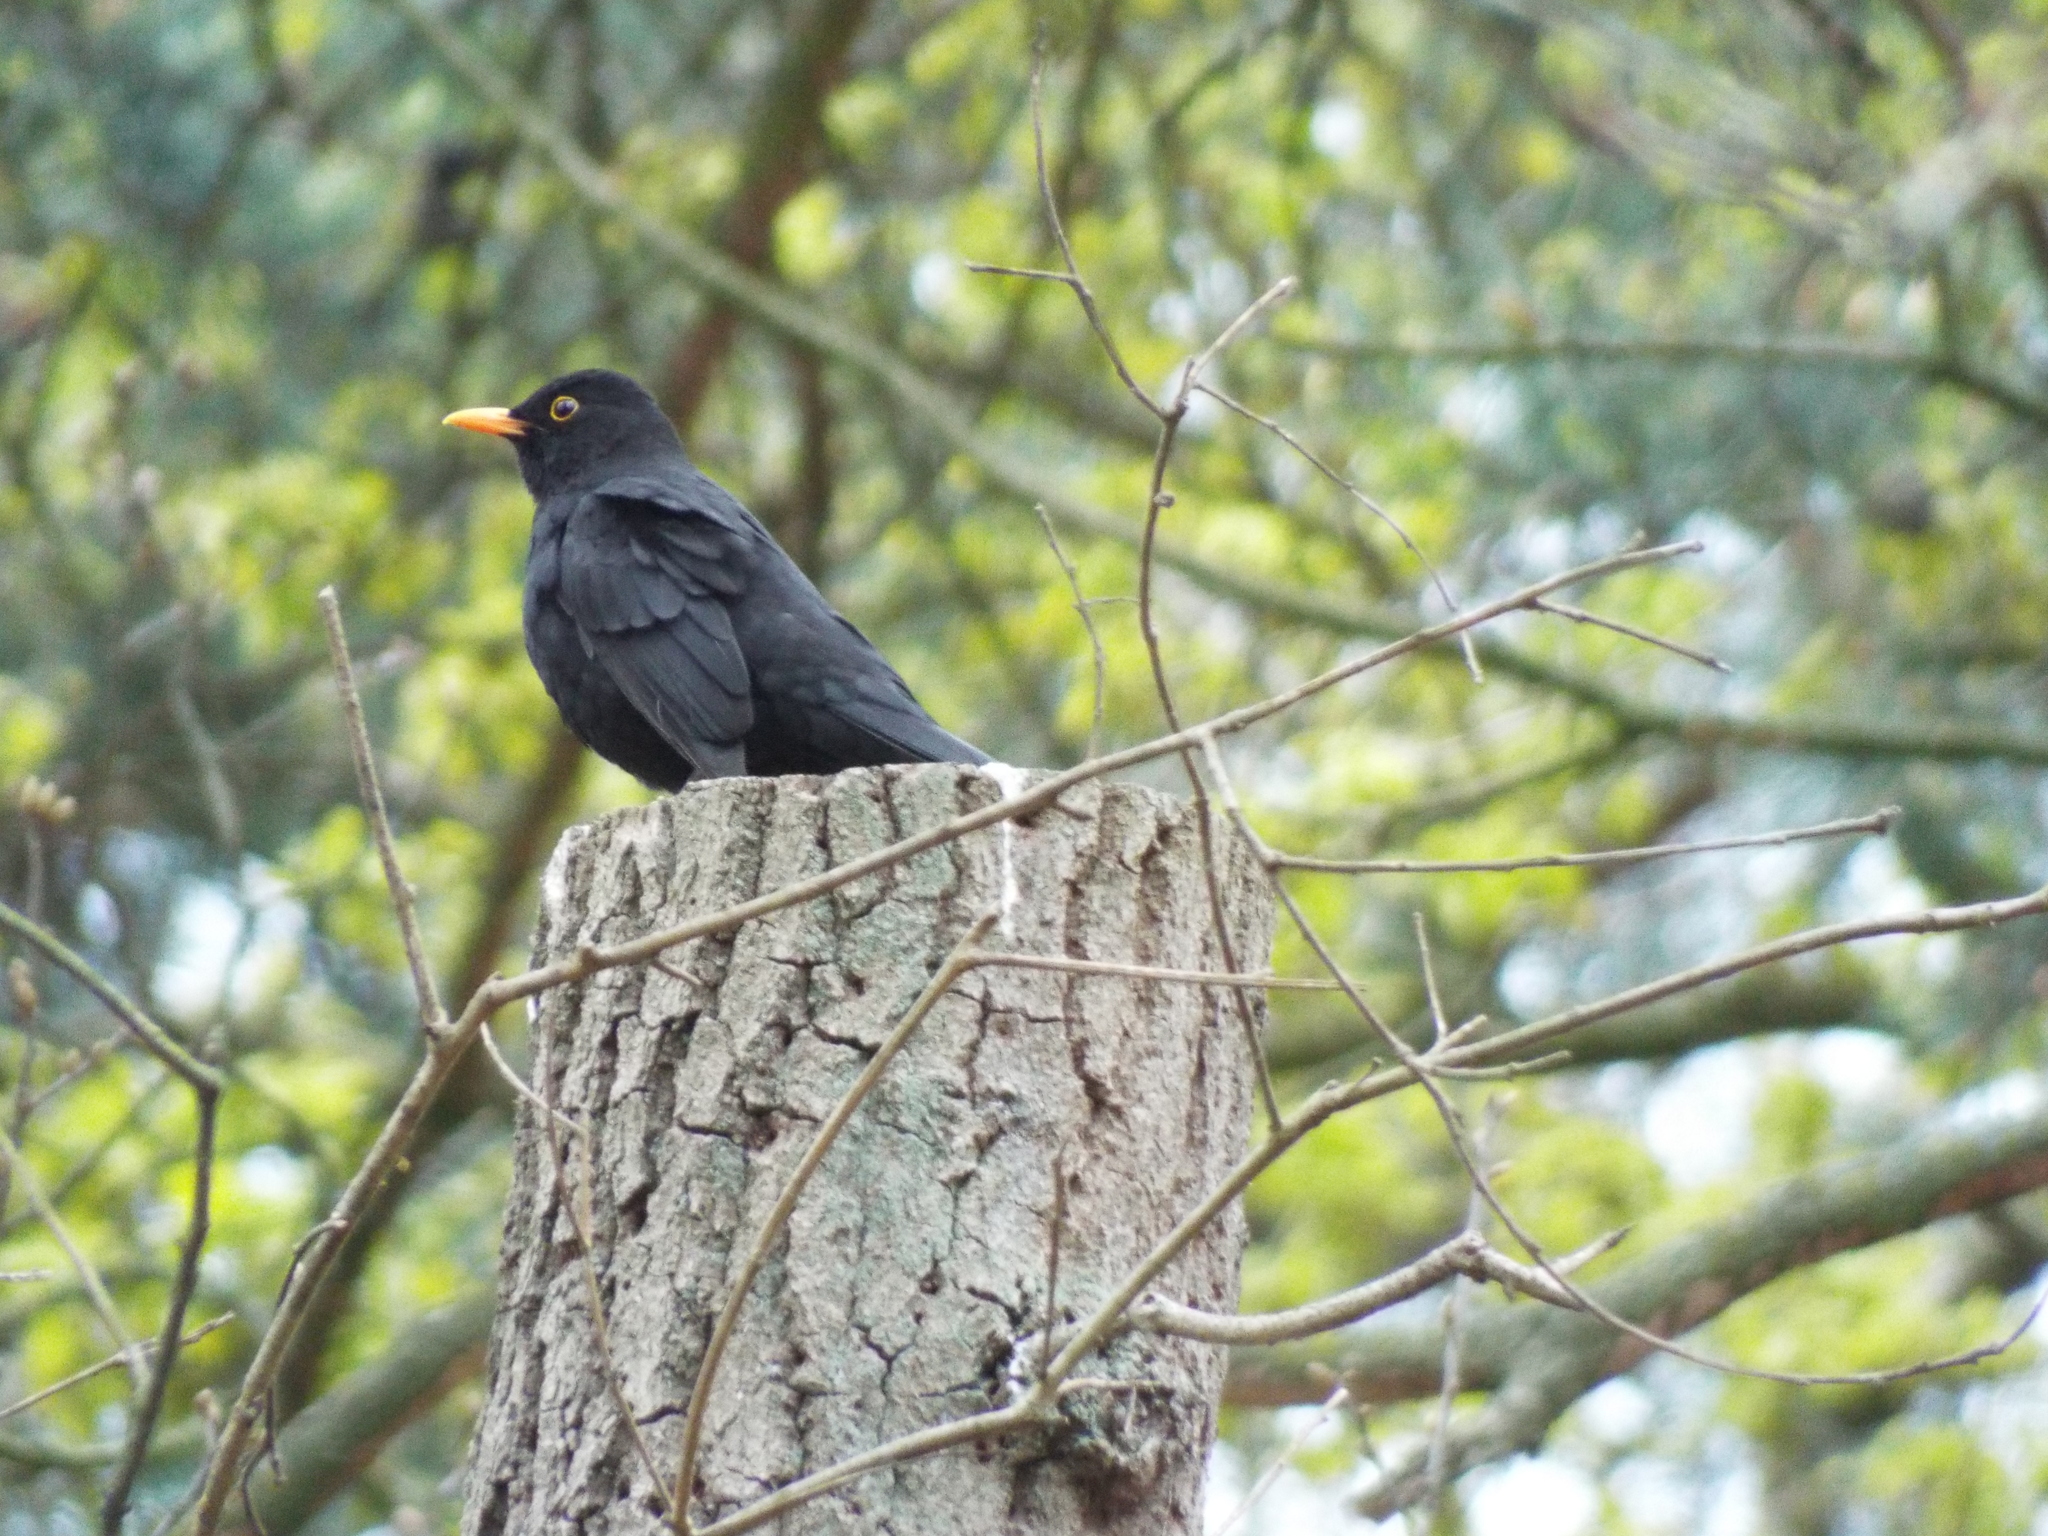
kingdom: Animalia
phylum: Chordata
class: Aves
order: Passeriformes
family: Turdidae
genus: Turdus
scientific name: Turdus merula
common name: Common blackbird
